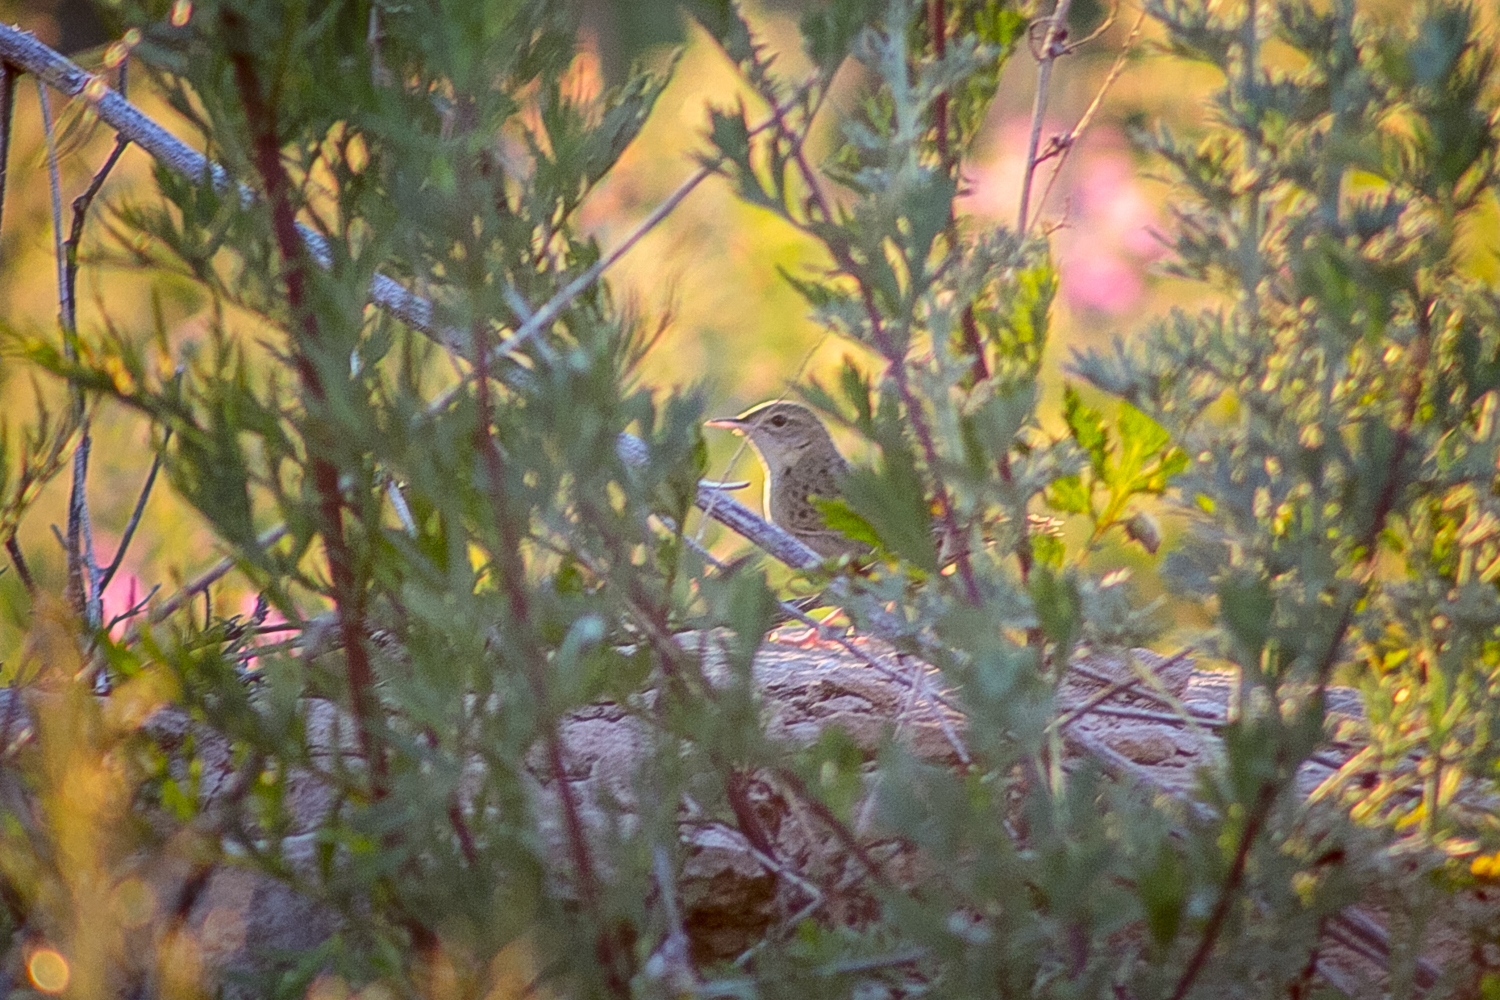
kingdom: Animalia
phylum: Chordata
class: Aves
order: Passeriformes
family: Locustellidae
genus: Locustella
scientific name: Locustella naevia
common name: Common grasshopper warbler
